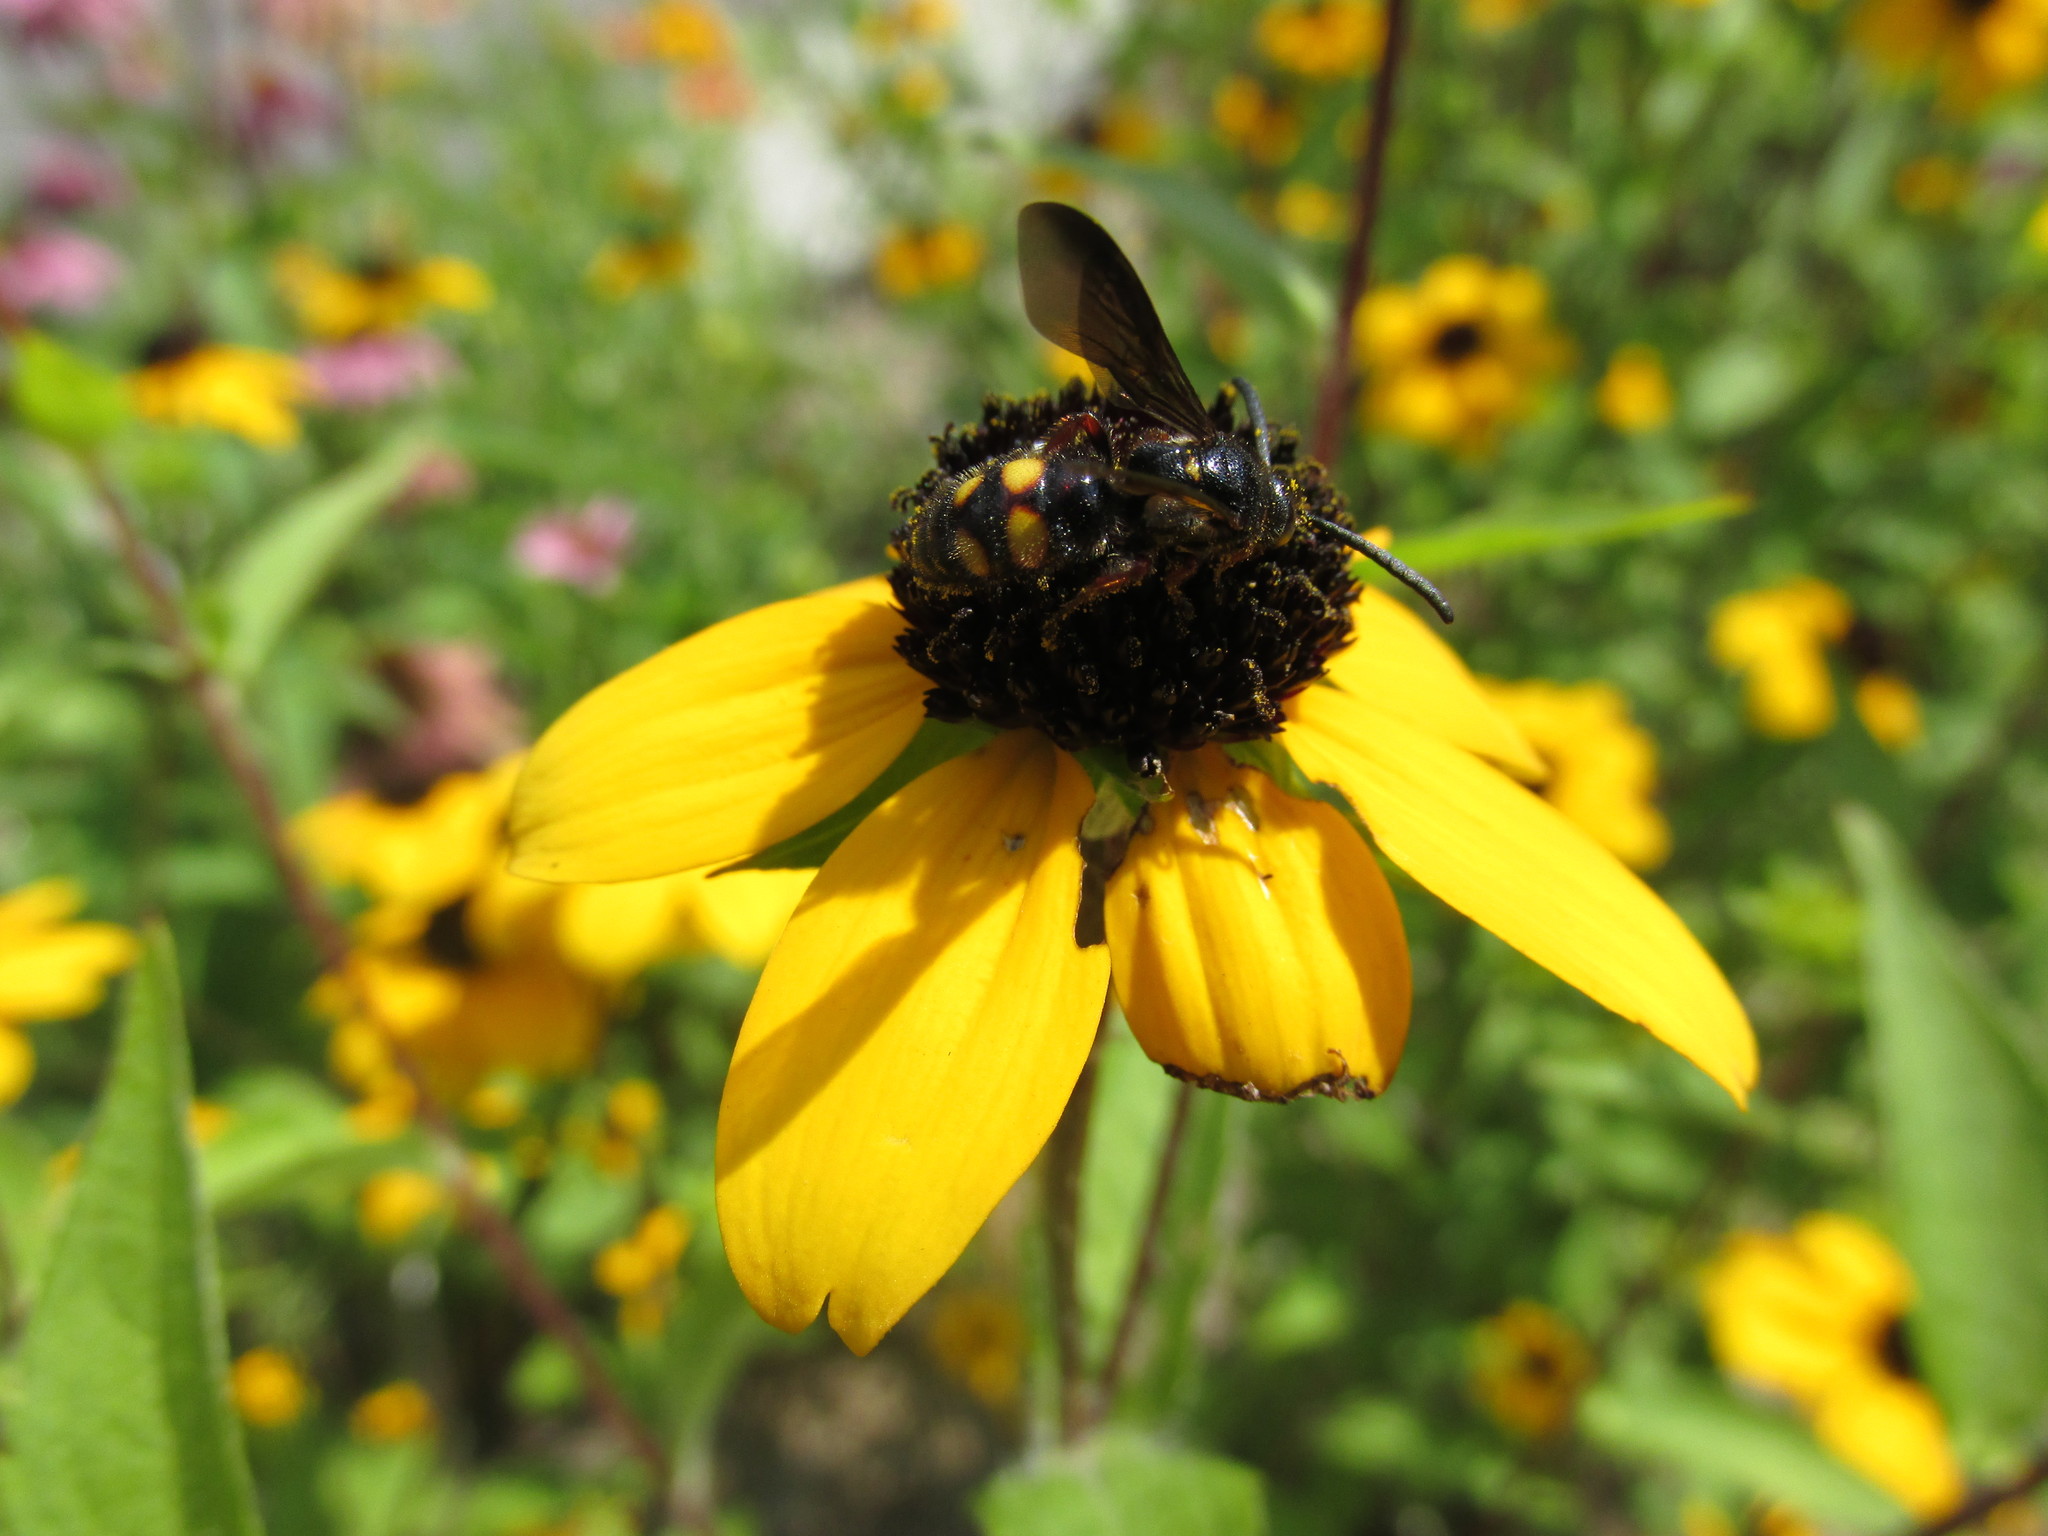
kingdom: Animalia
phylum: Arthropoda
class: Insecta
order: Hymenoptera
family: Scoliidae
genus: Scolia
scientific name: Scolia nobilitata
